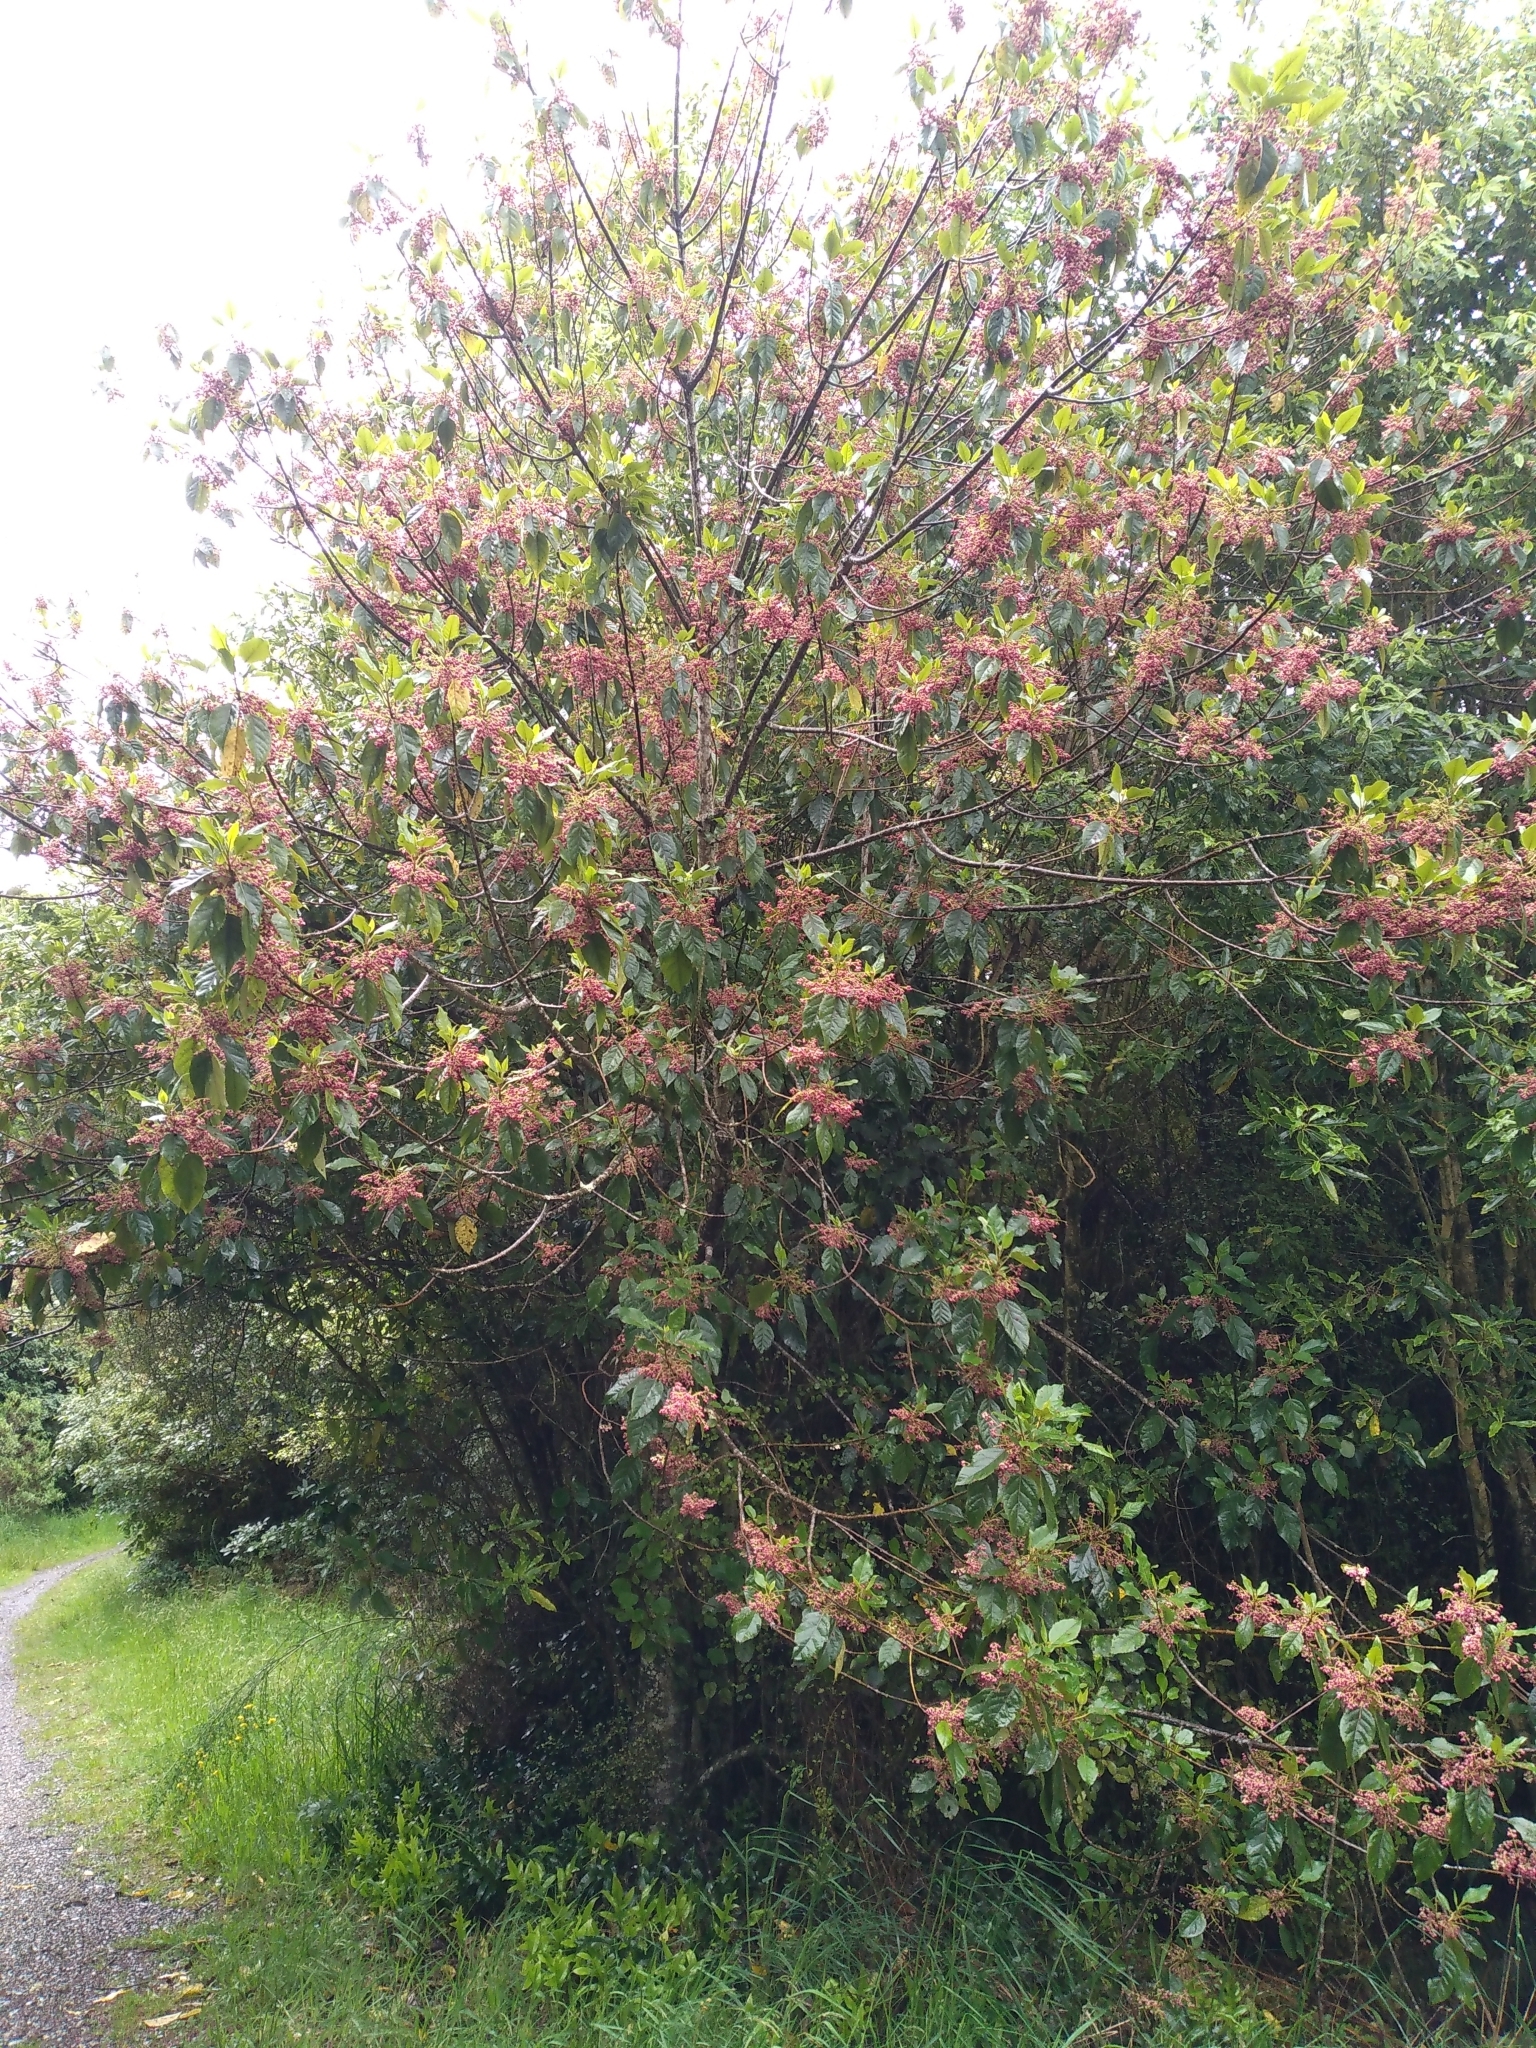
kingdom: Plantae
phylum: Tracheophyta
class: Magnoliopsida
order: Oxalidales
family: Elaeocarpaceae
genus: Aristotelia
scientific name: Aristotelia serrata
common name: New zealand wineberry
